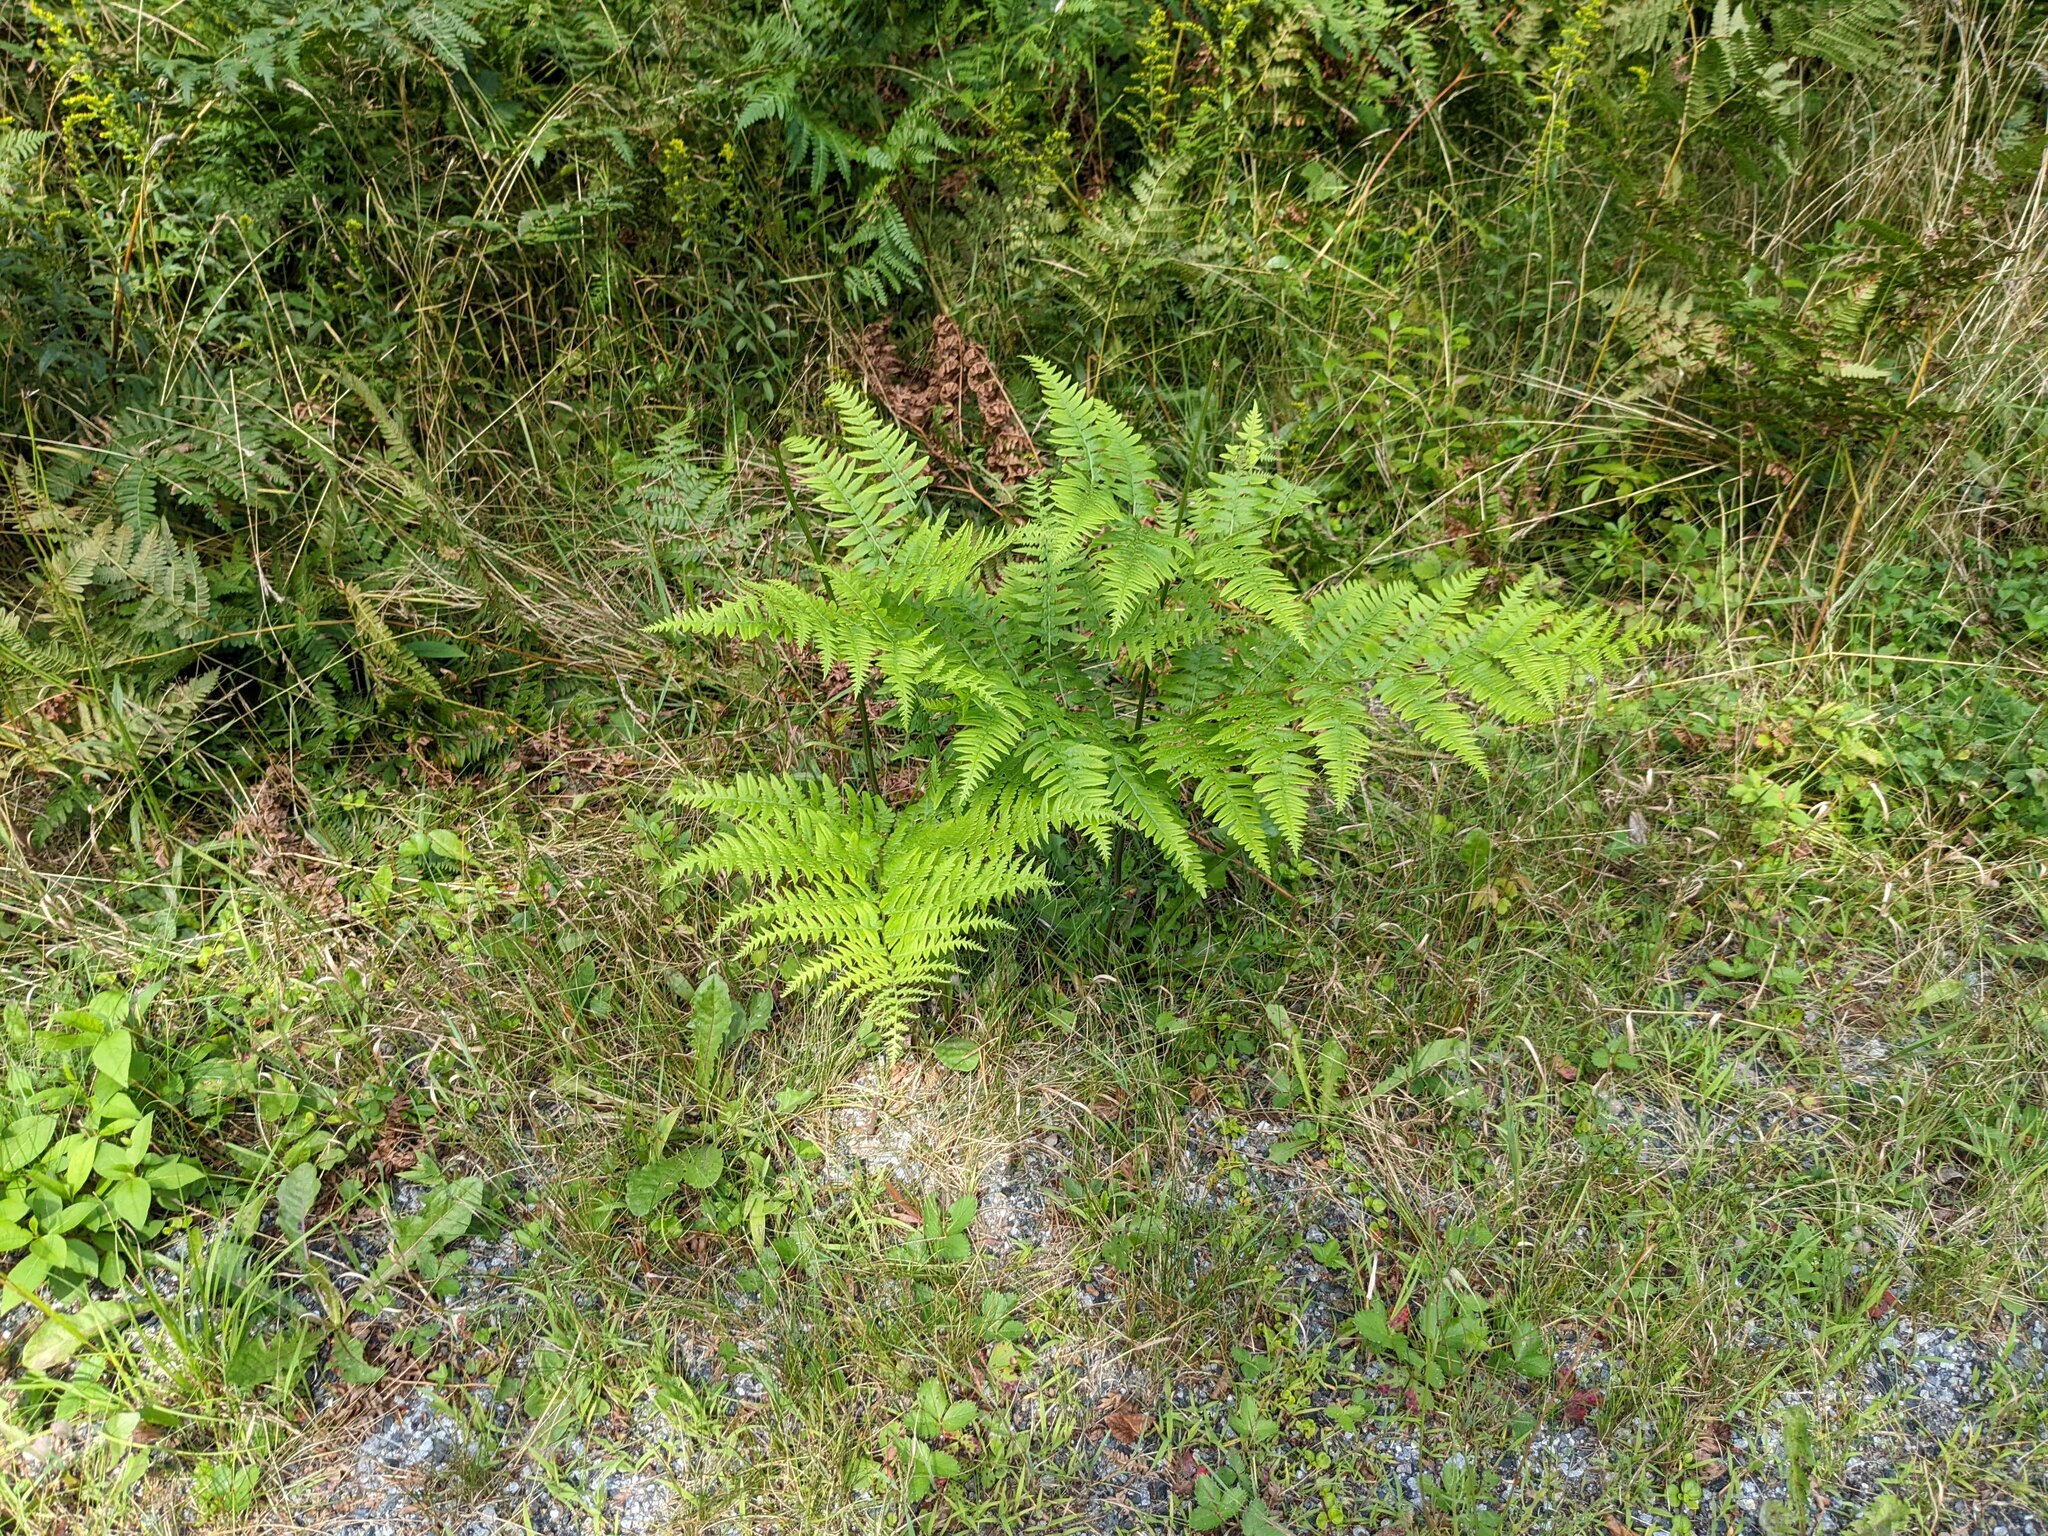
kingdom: Plantae
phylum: Tracheophyta
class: Polypodiopsida
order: Polypodiales
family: Dennstaedtiaceae
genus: Pteridium
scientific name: Pteridium aquilinum
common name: Bracken
